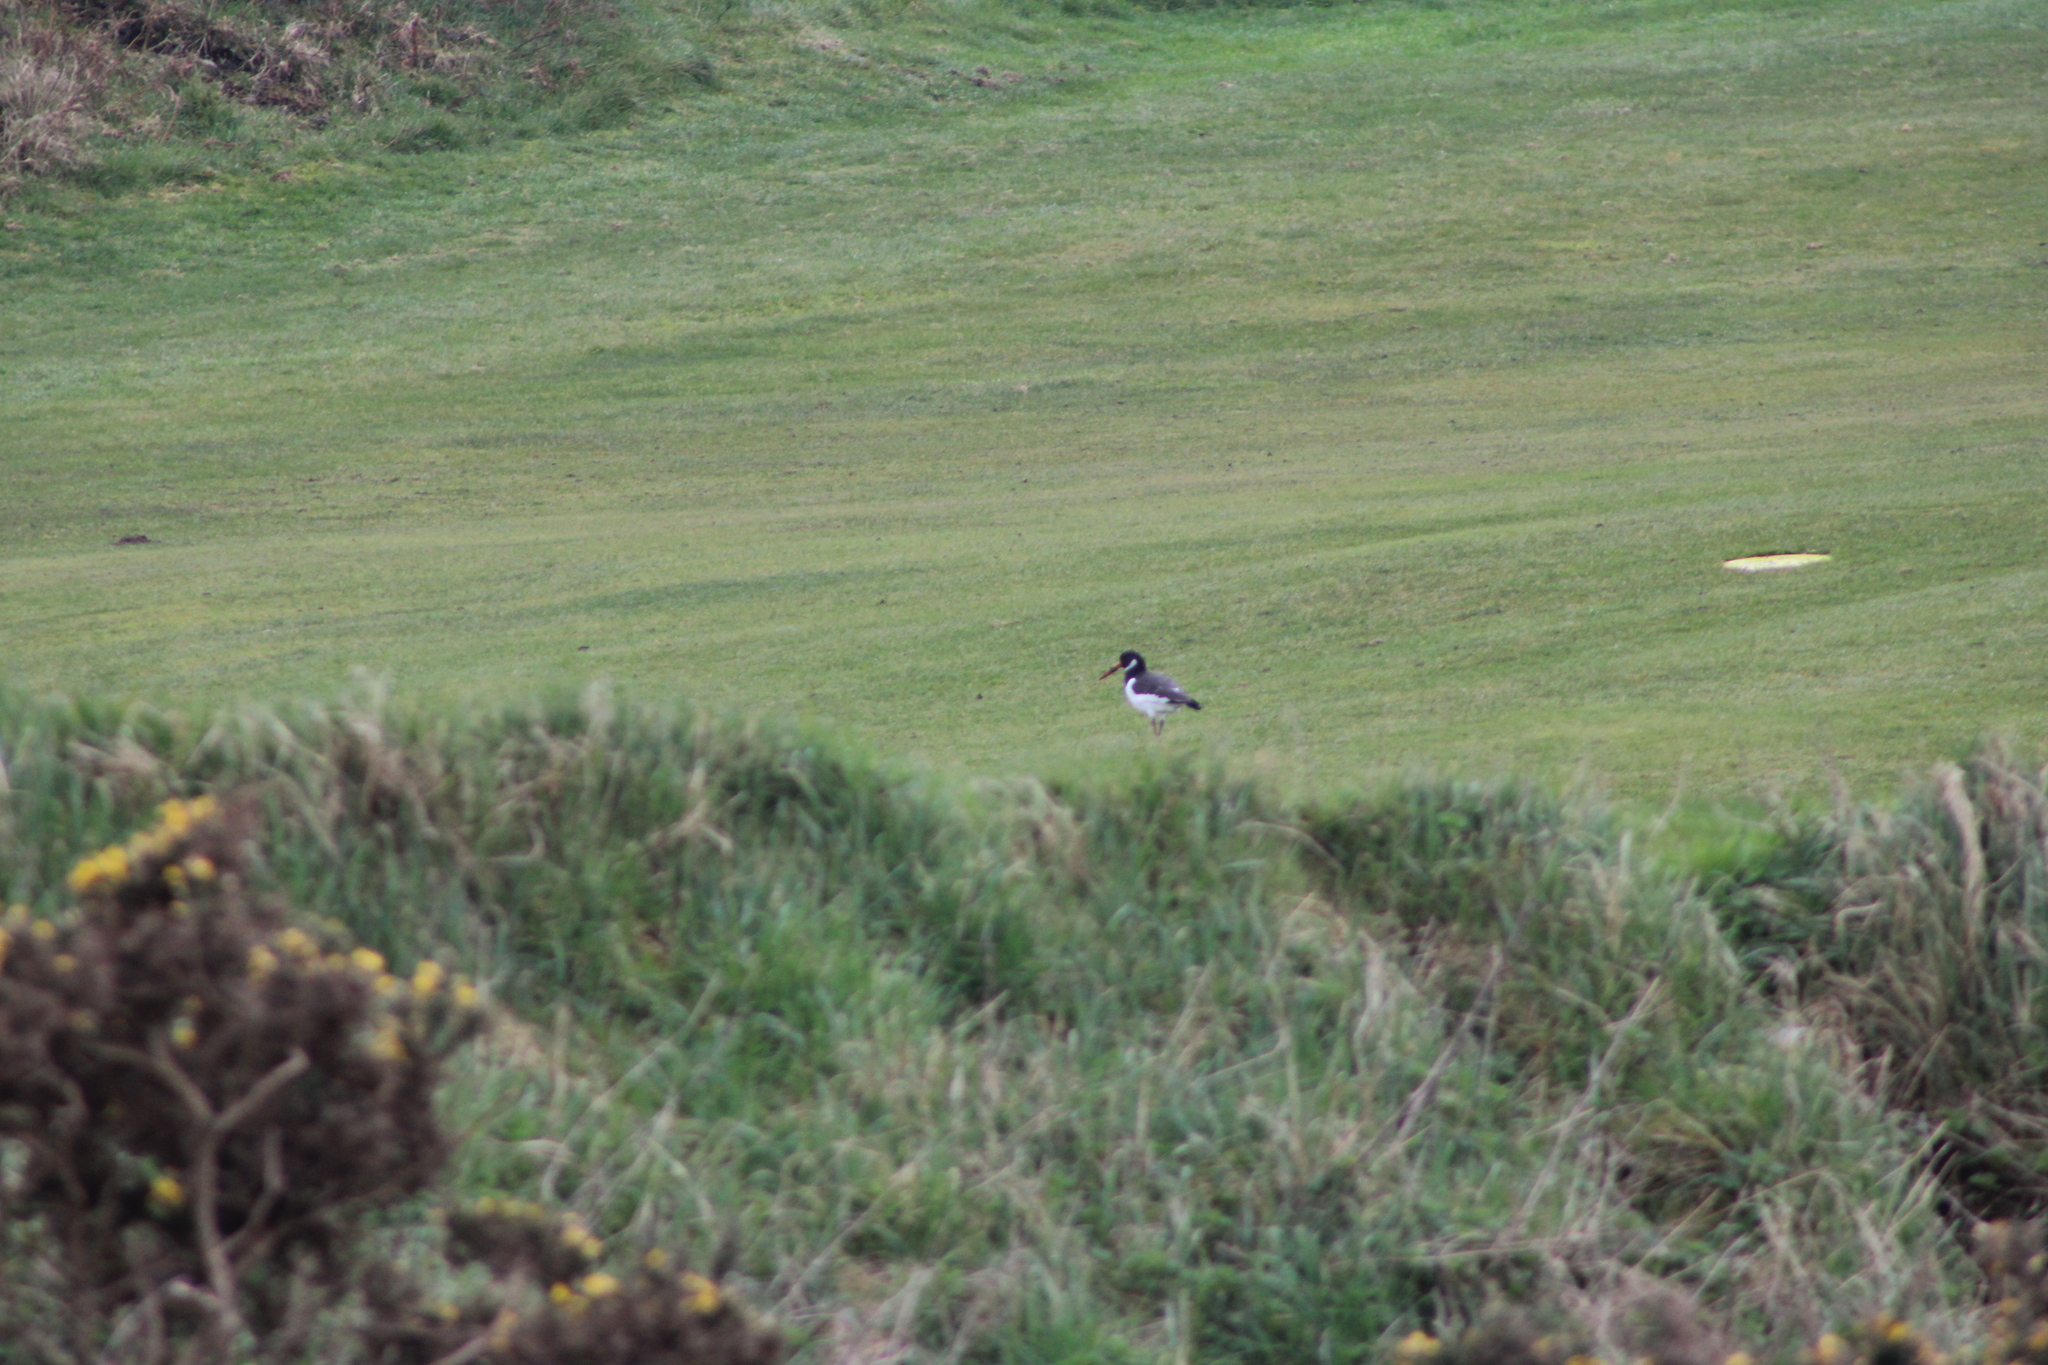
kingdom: Animalia
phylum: Chordata
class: Aves
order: Charadriiformes
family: Haematopodidae
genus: Haematopus
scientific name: Haematopus ostralegus
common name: Eurasian oystercatcher
